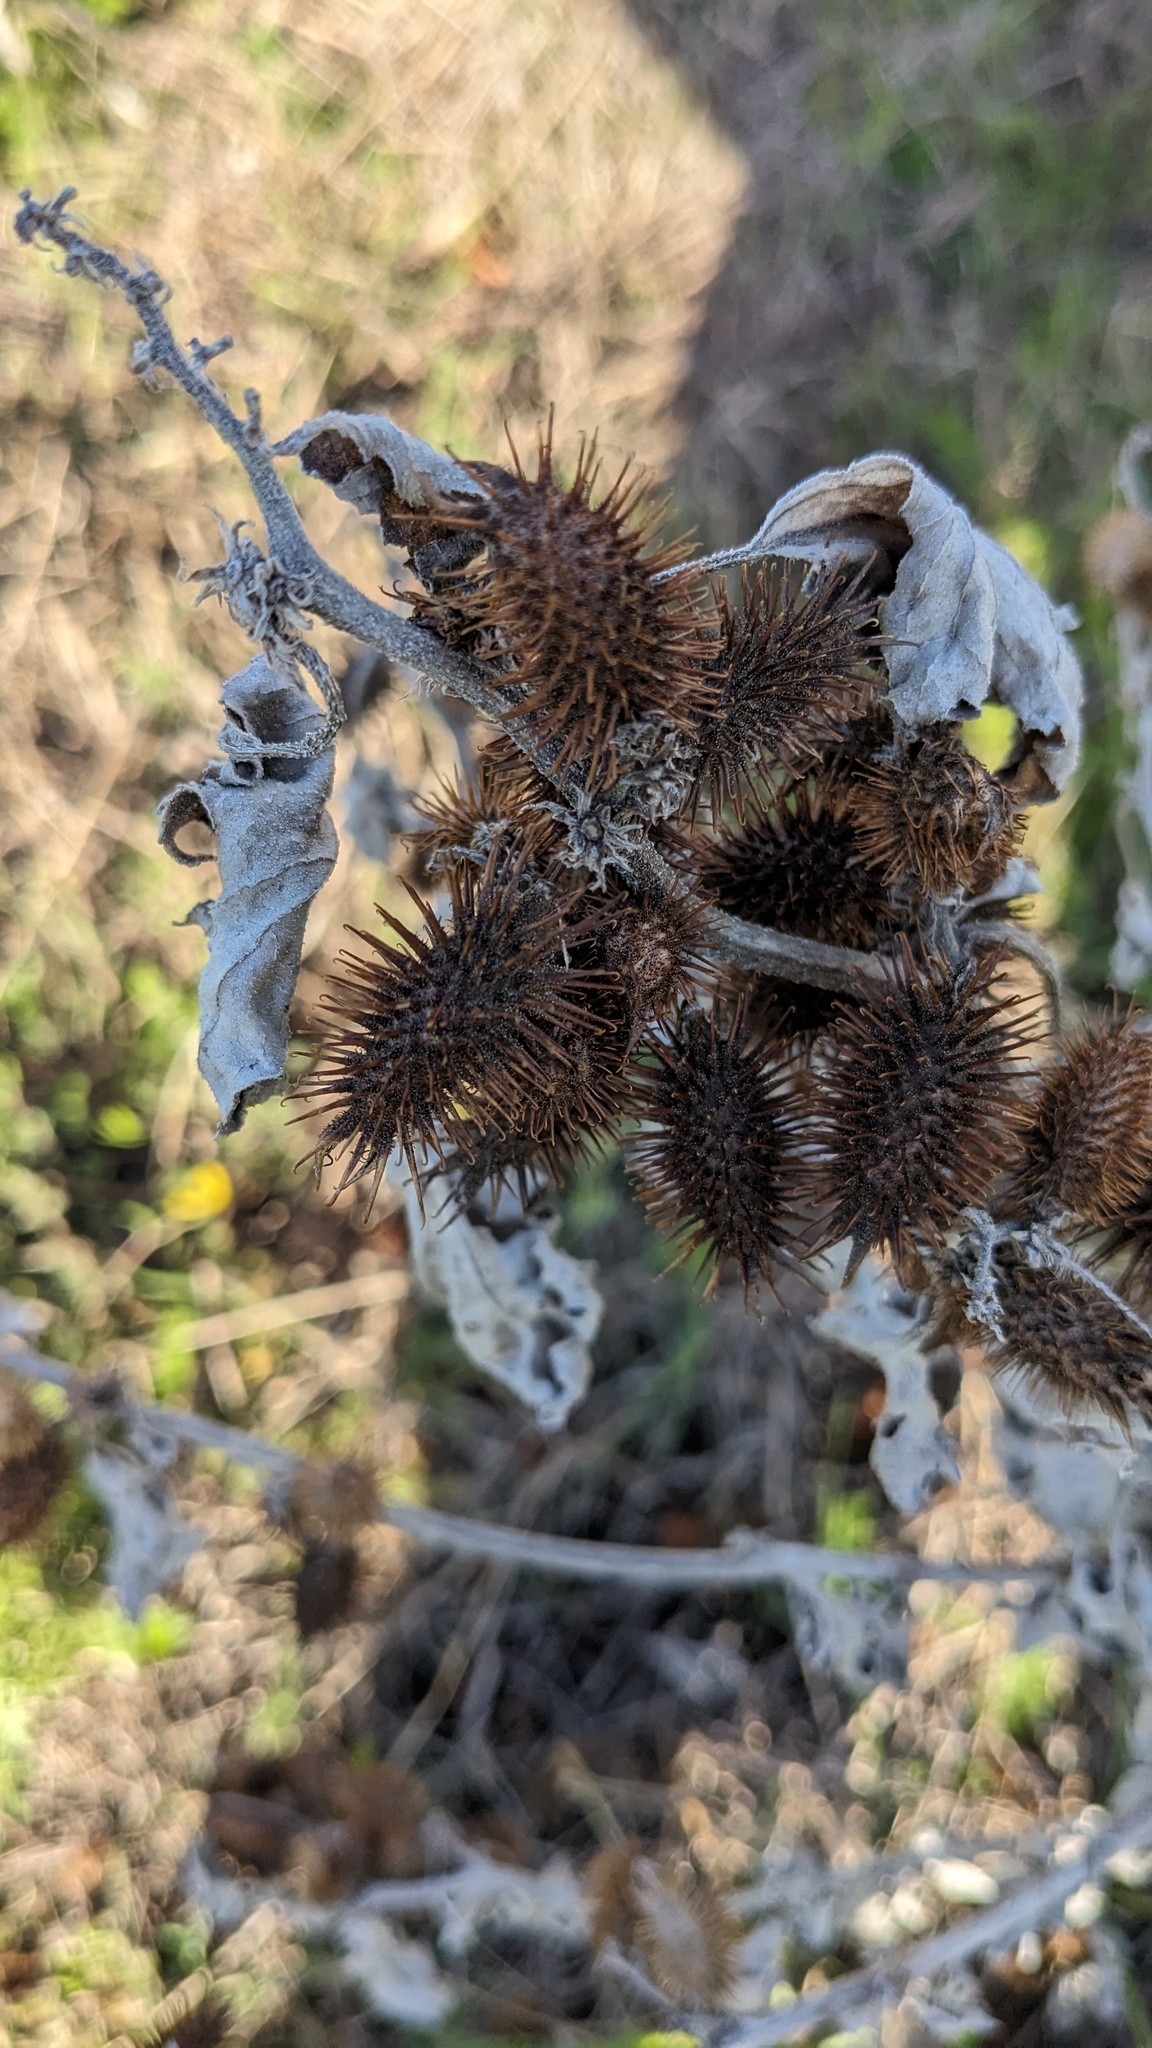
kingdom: Plantae
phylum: Tracheophyta
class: Magnoliopsida
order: Asterales
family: Asteraceae
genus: Xanthium
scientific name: Xanthium strumarium
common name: Rough cocklebur
